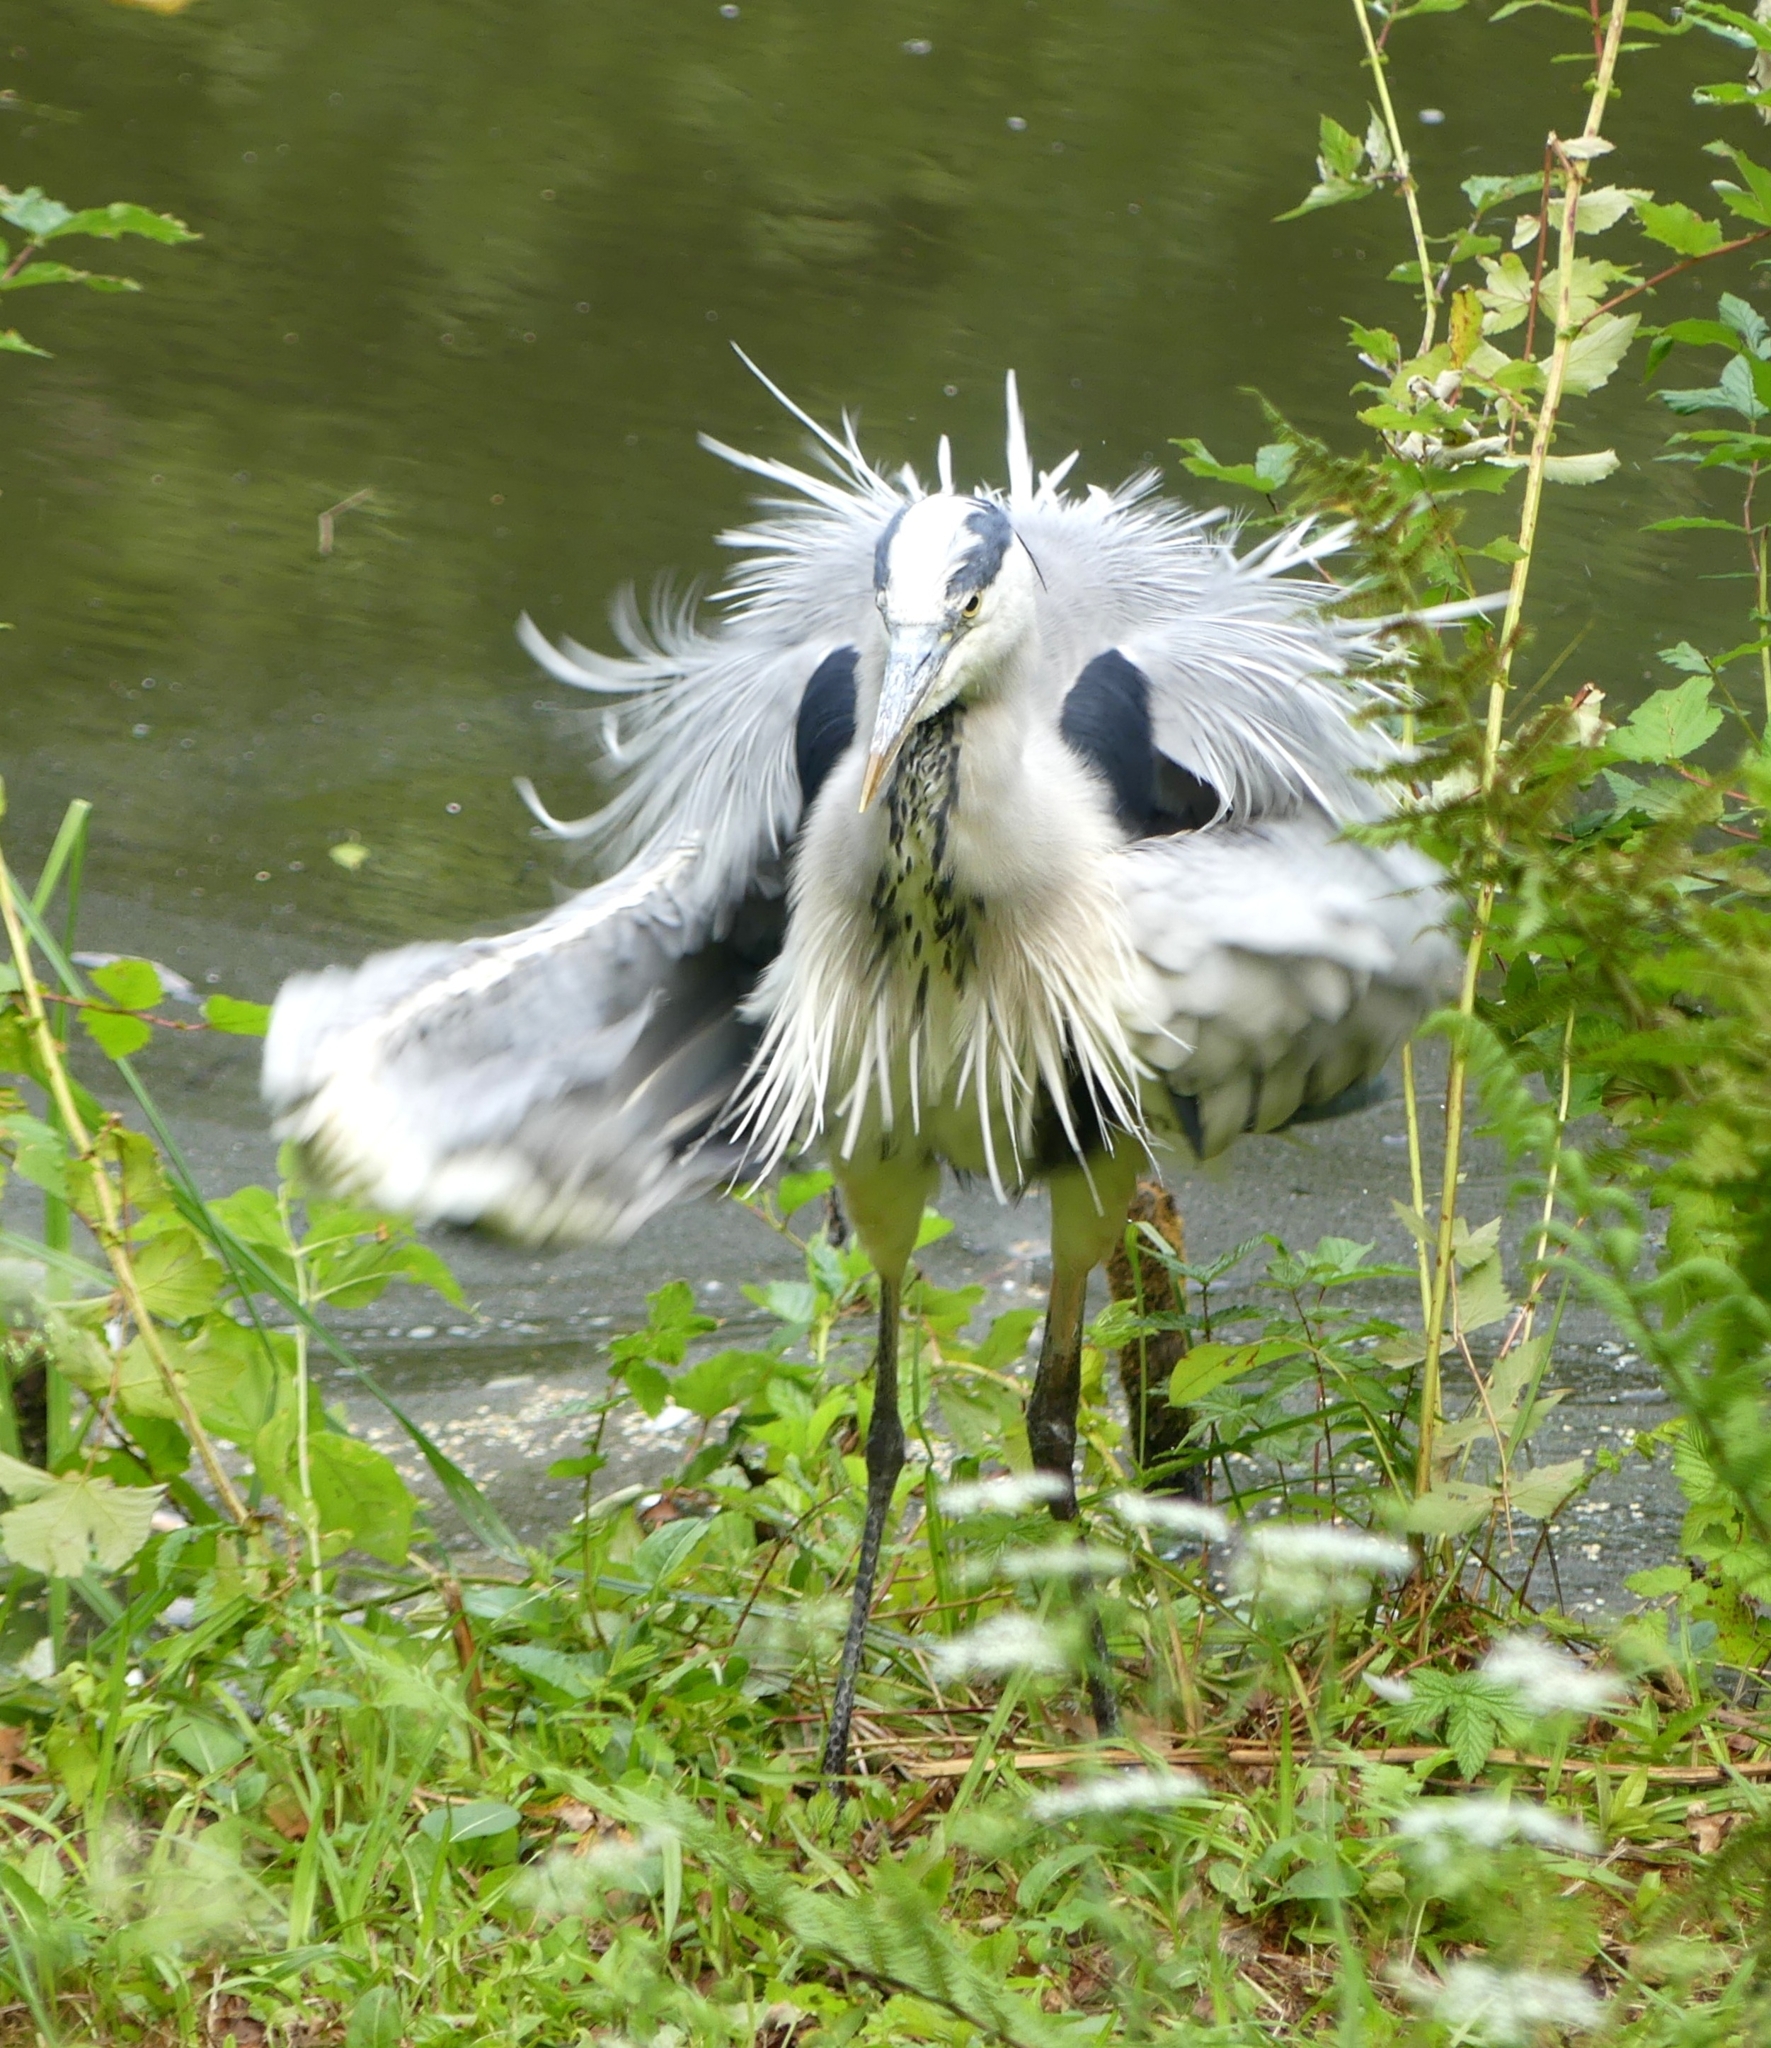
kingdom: Animalia
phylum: Chordata
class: Aves
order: Pelecaniformes
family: Ardeidae
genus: Ardea
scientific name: Ardea cinerea
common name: Grey heron
